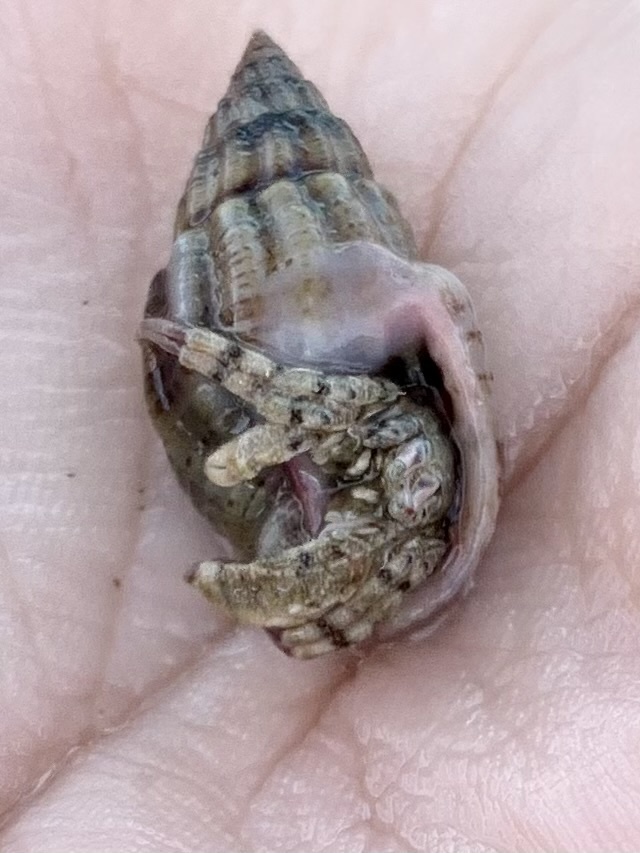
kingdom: Animalia
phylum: Arthropoda
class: Malacostraca
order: Decapoda
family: Diogenidae
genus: Diogenes
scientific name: Diogenes pugilator
